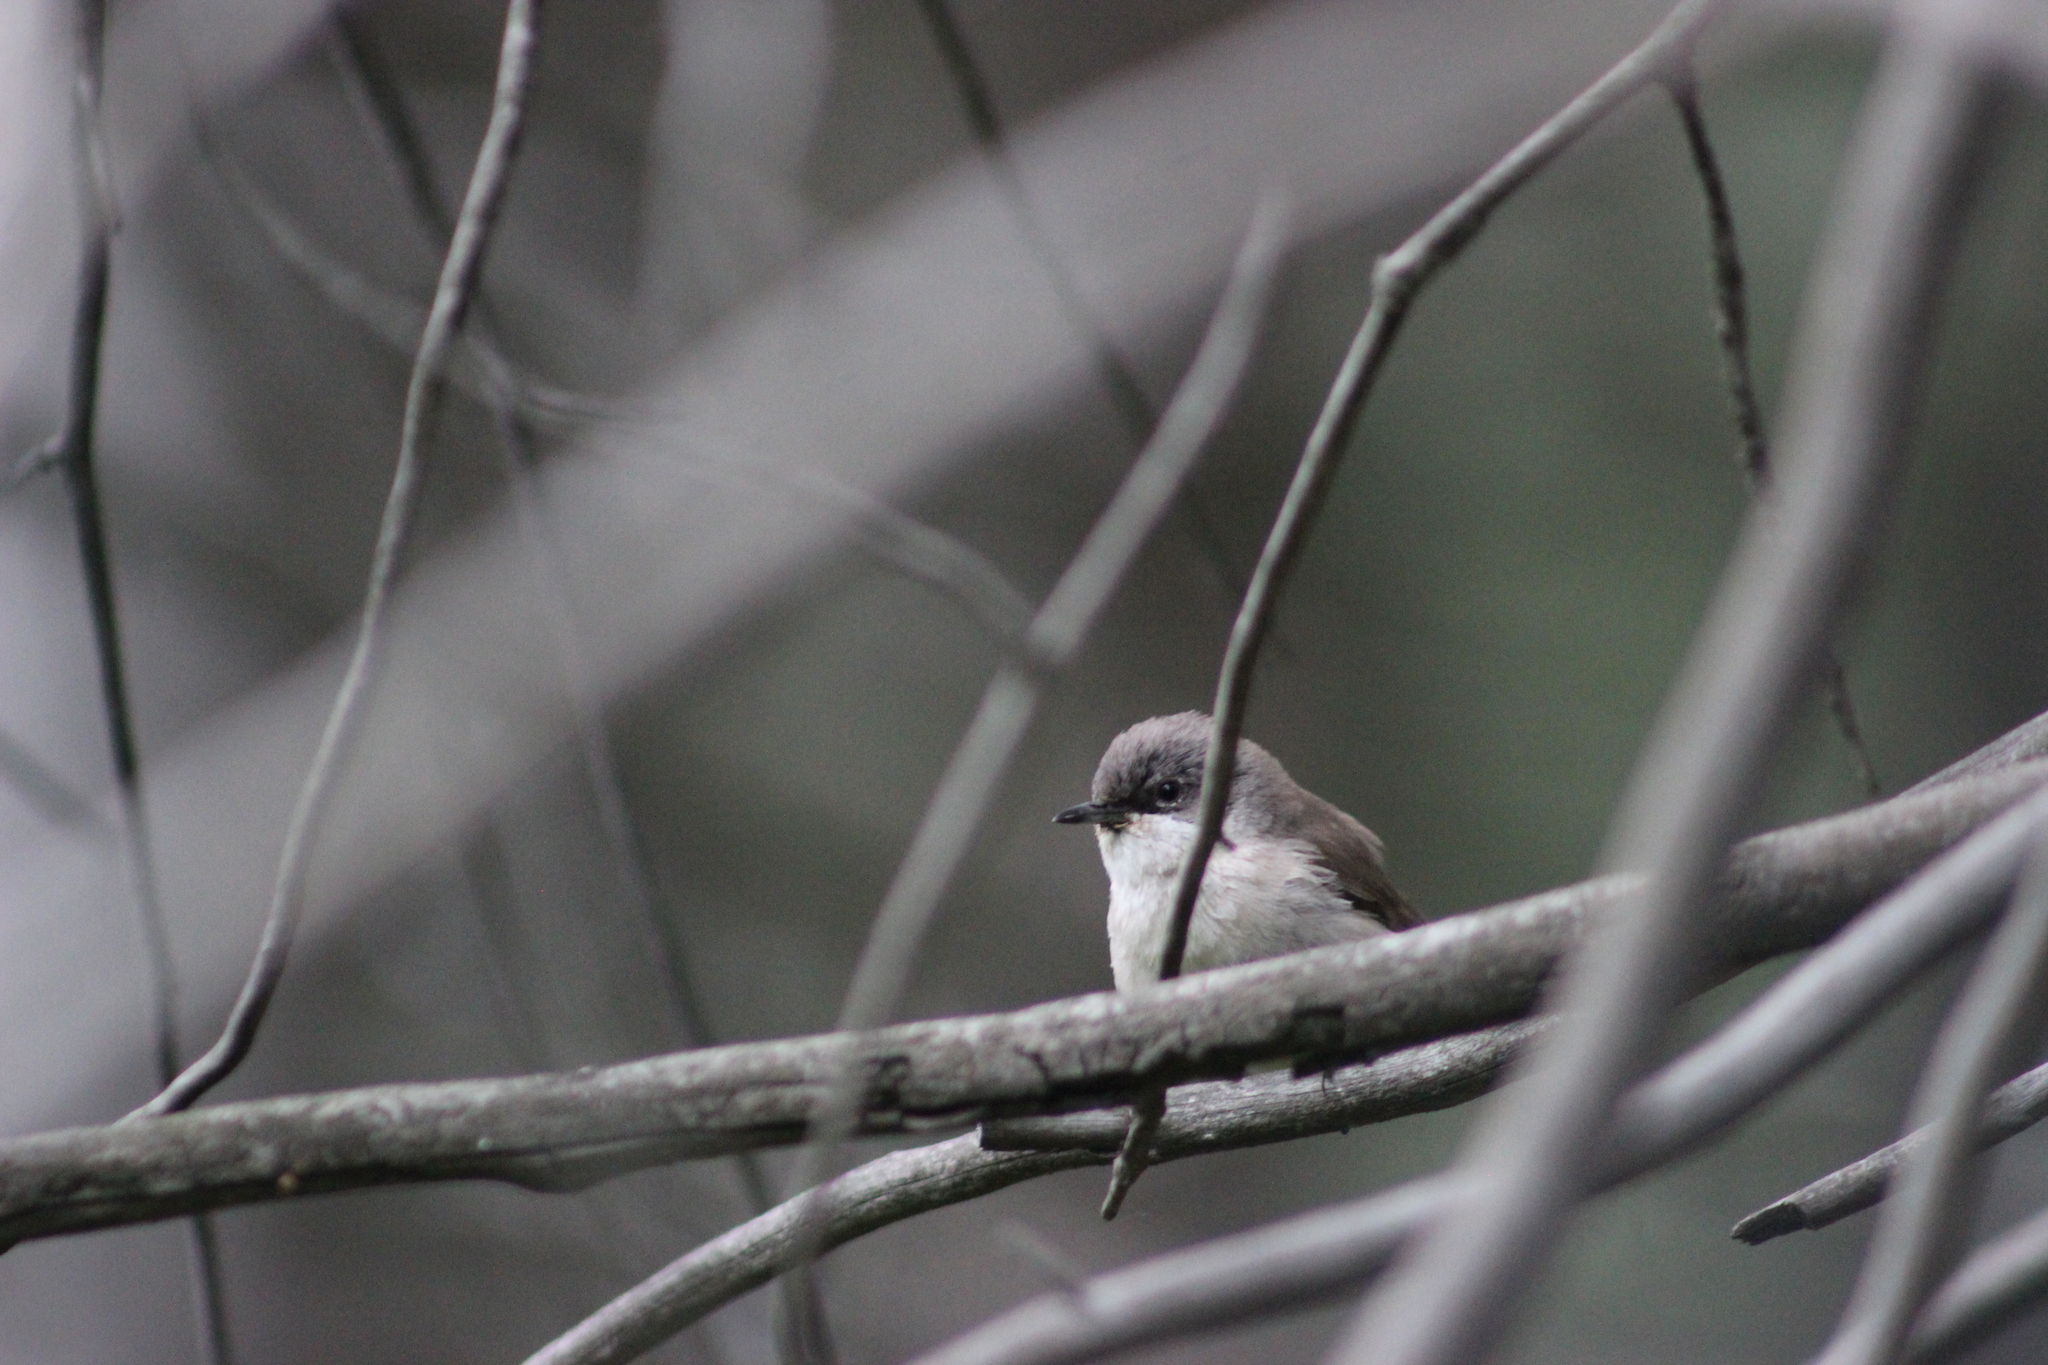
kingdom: Animalia
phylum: Chordata
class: Aves
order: Passeriformes
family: Sylviidae
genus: Sylvia
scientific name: Sylvia curruca
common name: Lesser whitethroat
